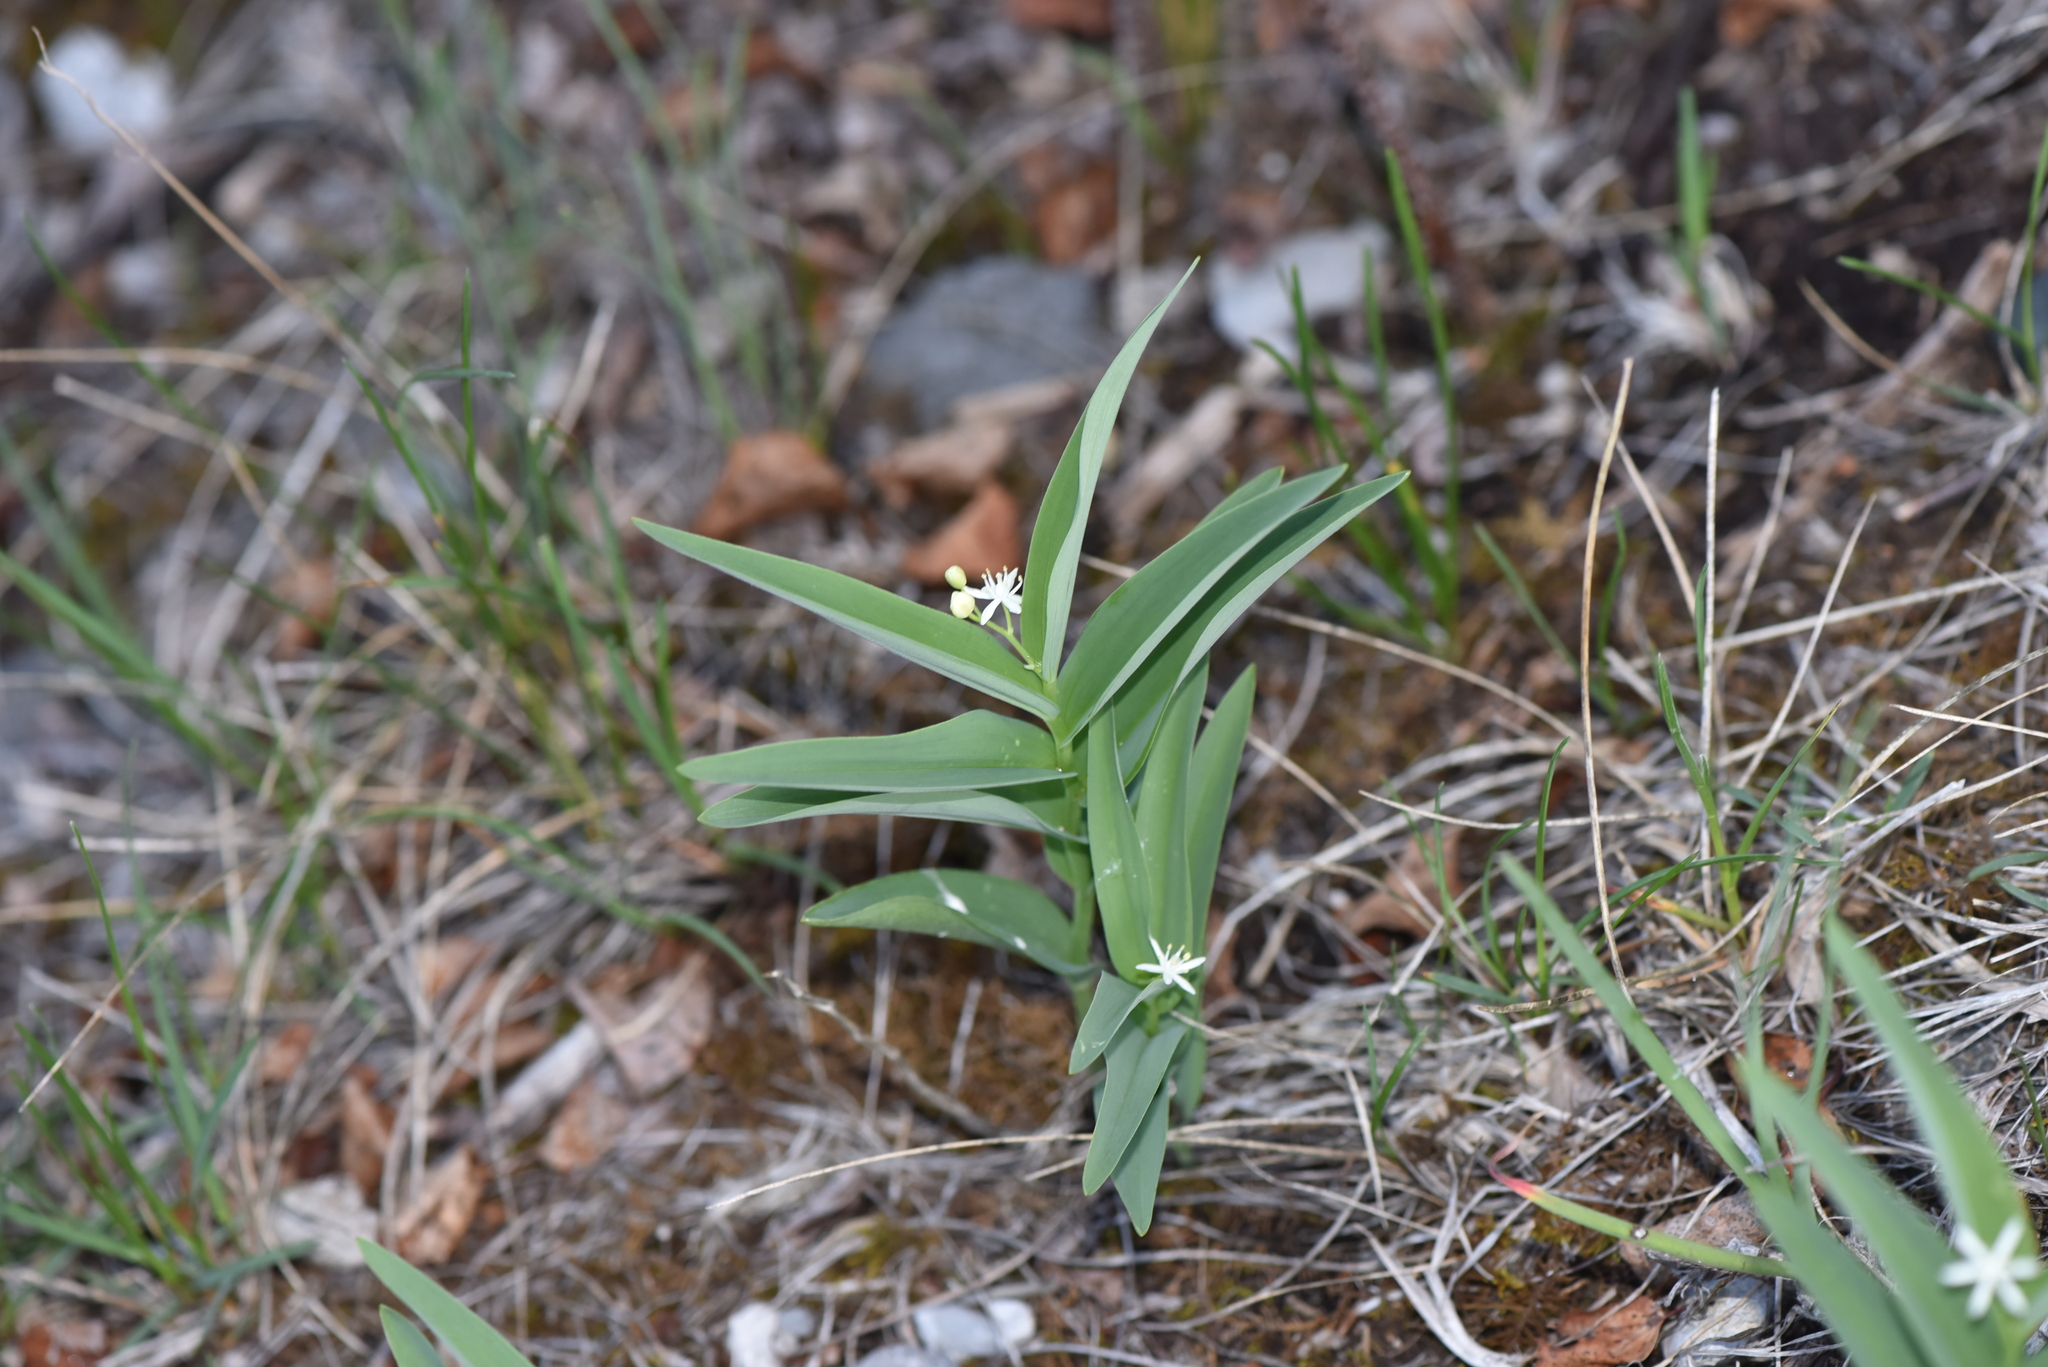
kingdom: Plantae
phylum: Tracheophyta
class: Liliopsida
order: Asparagales
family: Asparagaceae
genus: Maianthemum
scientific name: Maianthemum stellatum
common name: Little false solomon's seal
